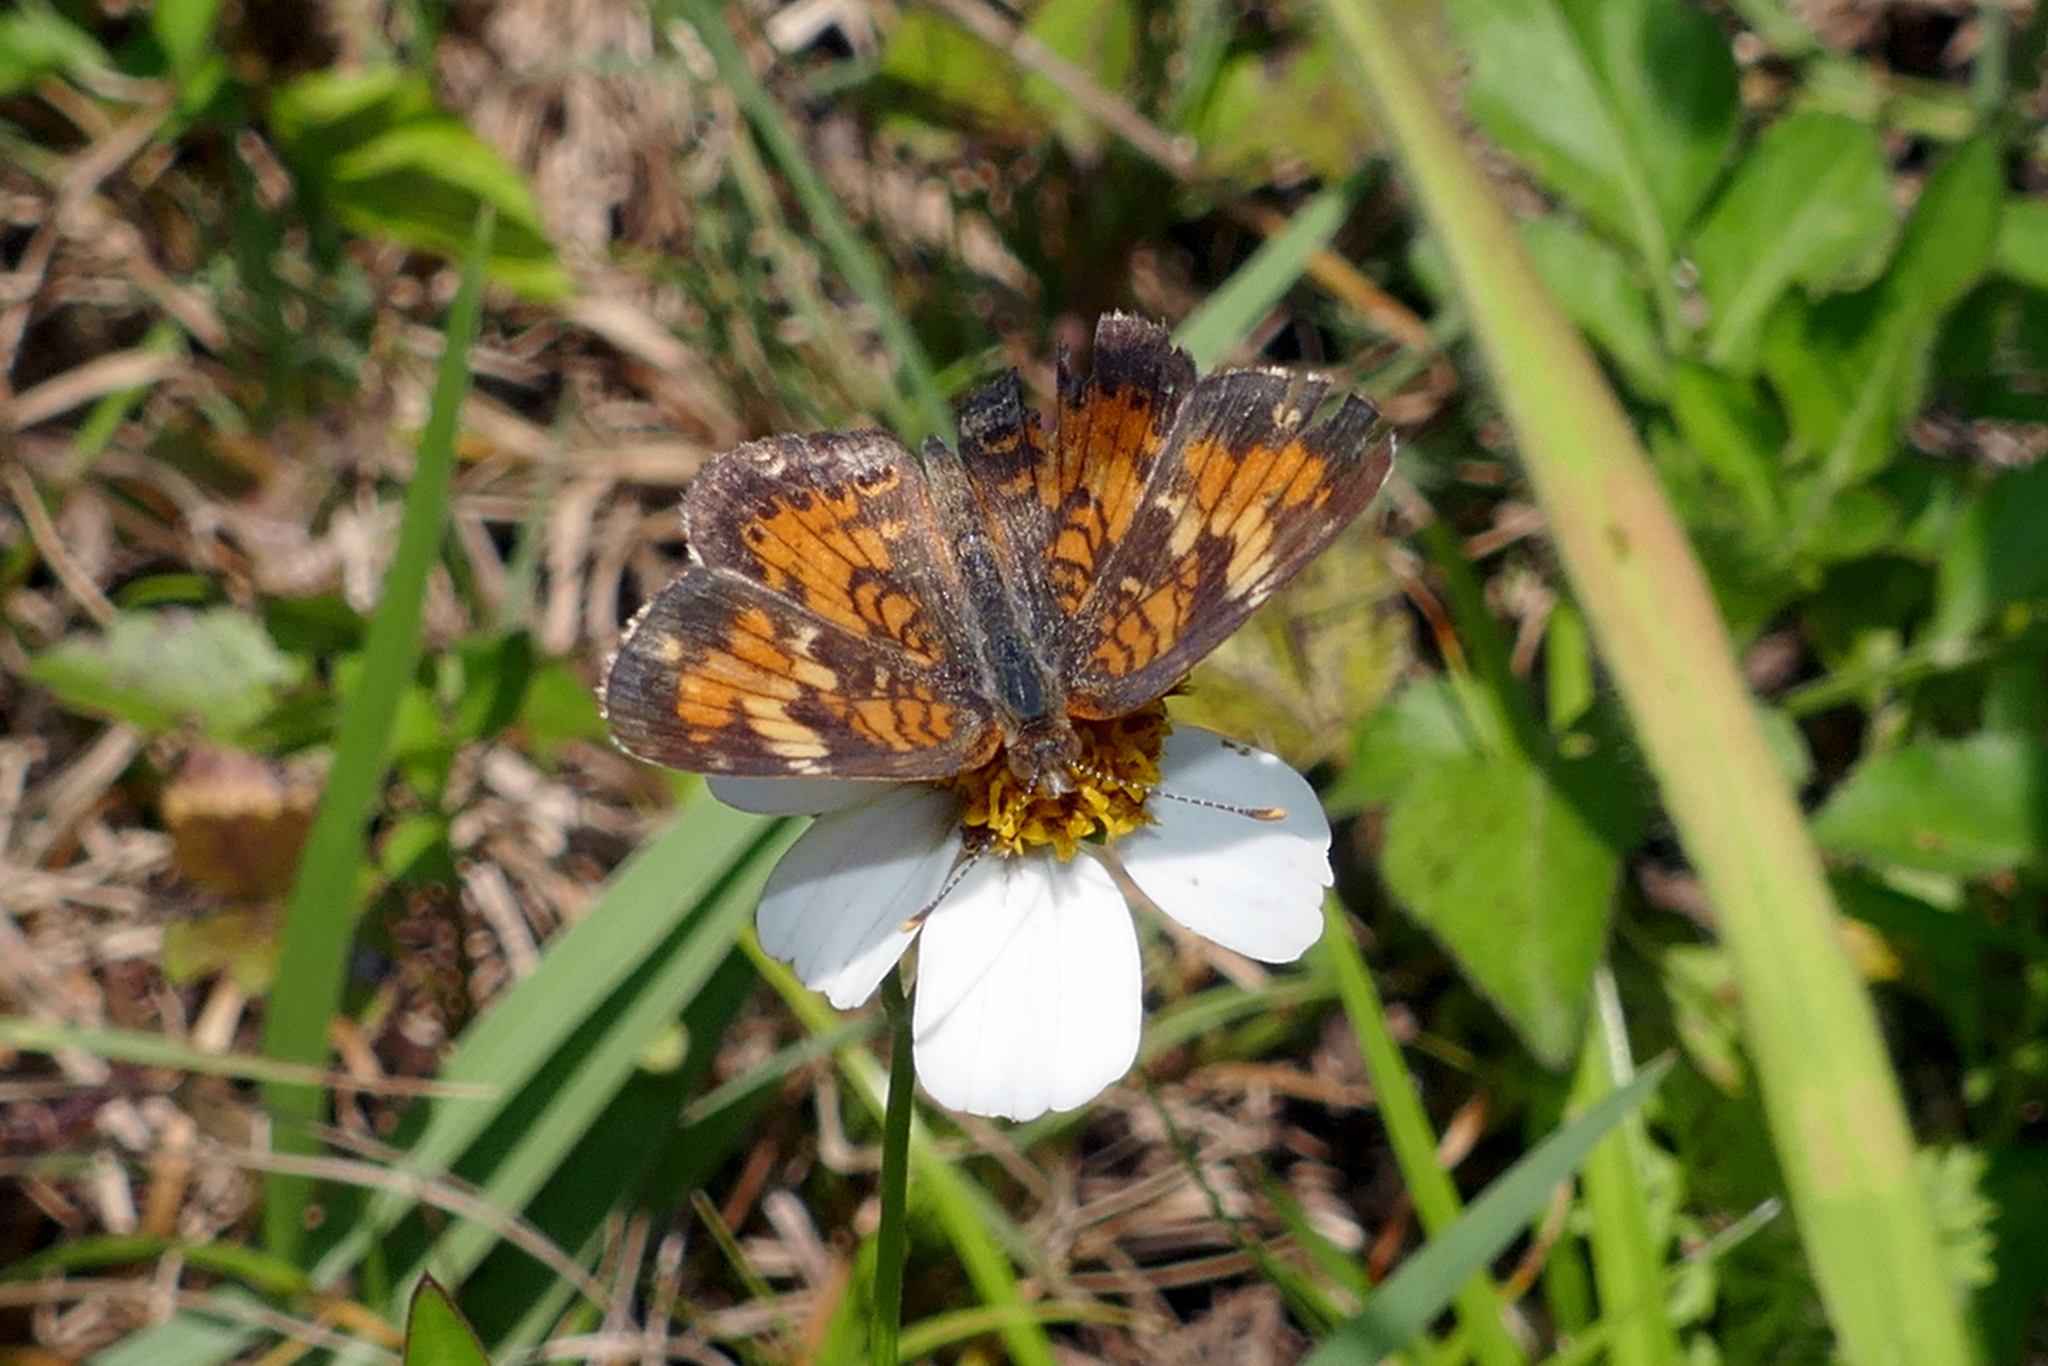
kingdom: Animalia
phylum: Arthropoda
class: Insecta
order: Lepidoptera
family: Nymphalidae
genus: Phyciodes
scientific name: Phyciodes phaon
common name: Phaon crescent
